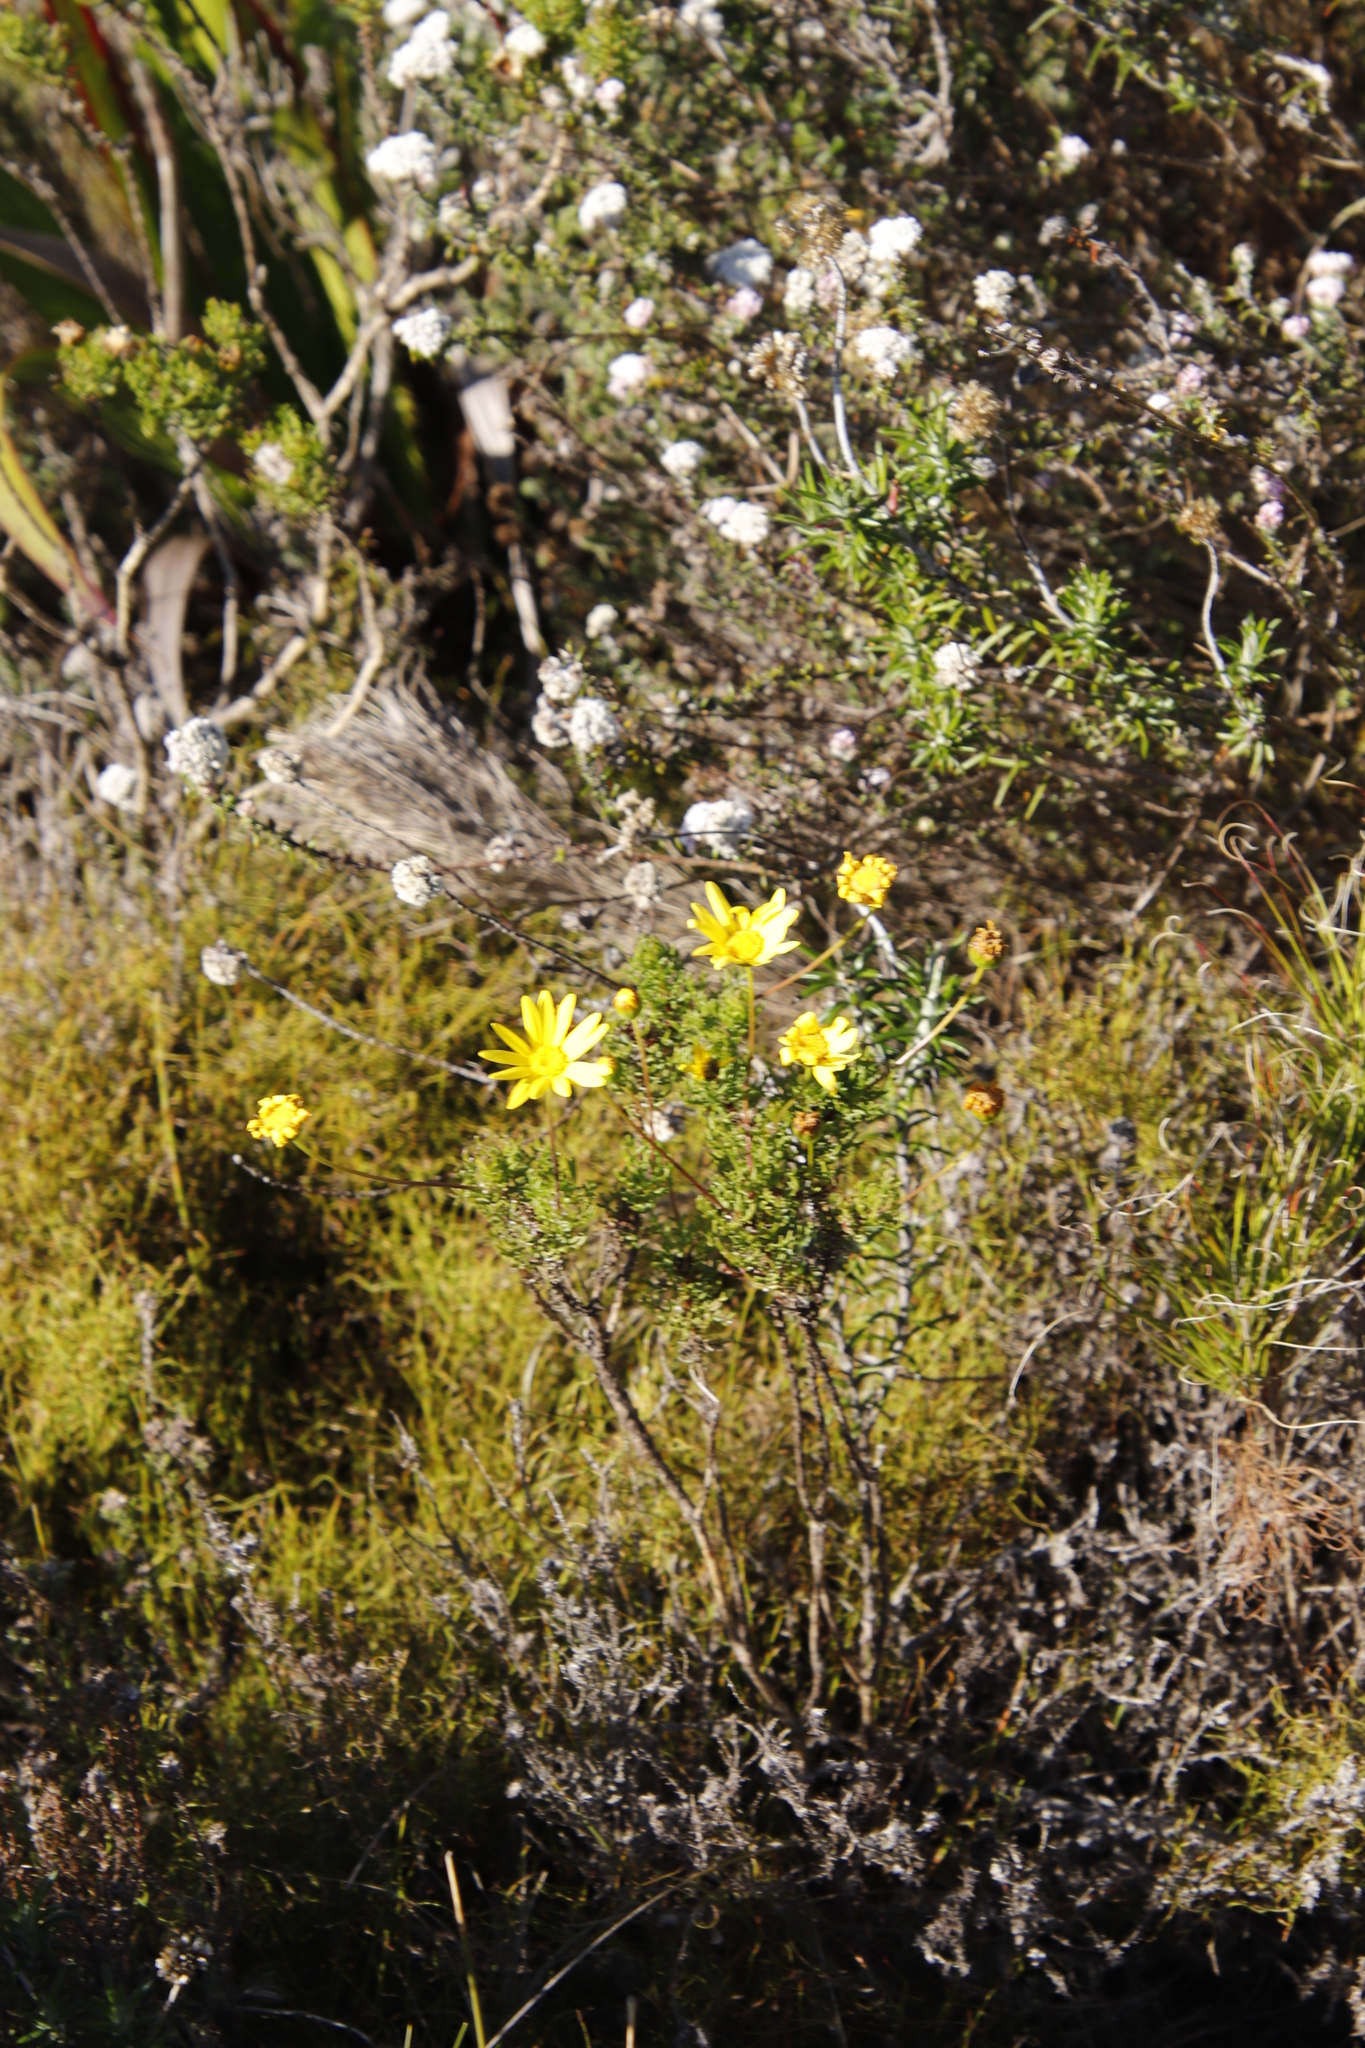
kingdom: Plantae
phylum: Tracheophyta
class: Magnoliopsida
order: Asterales
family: Asteraceae
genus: Euryops
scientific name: Euryops abrotanifolius
